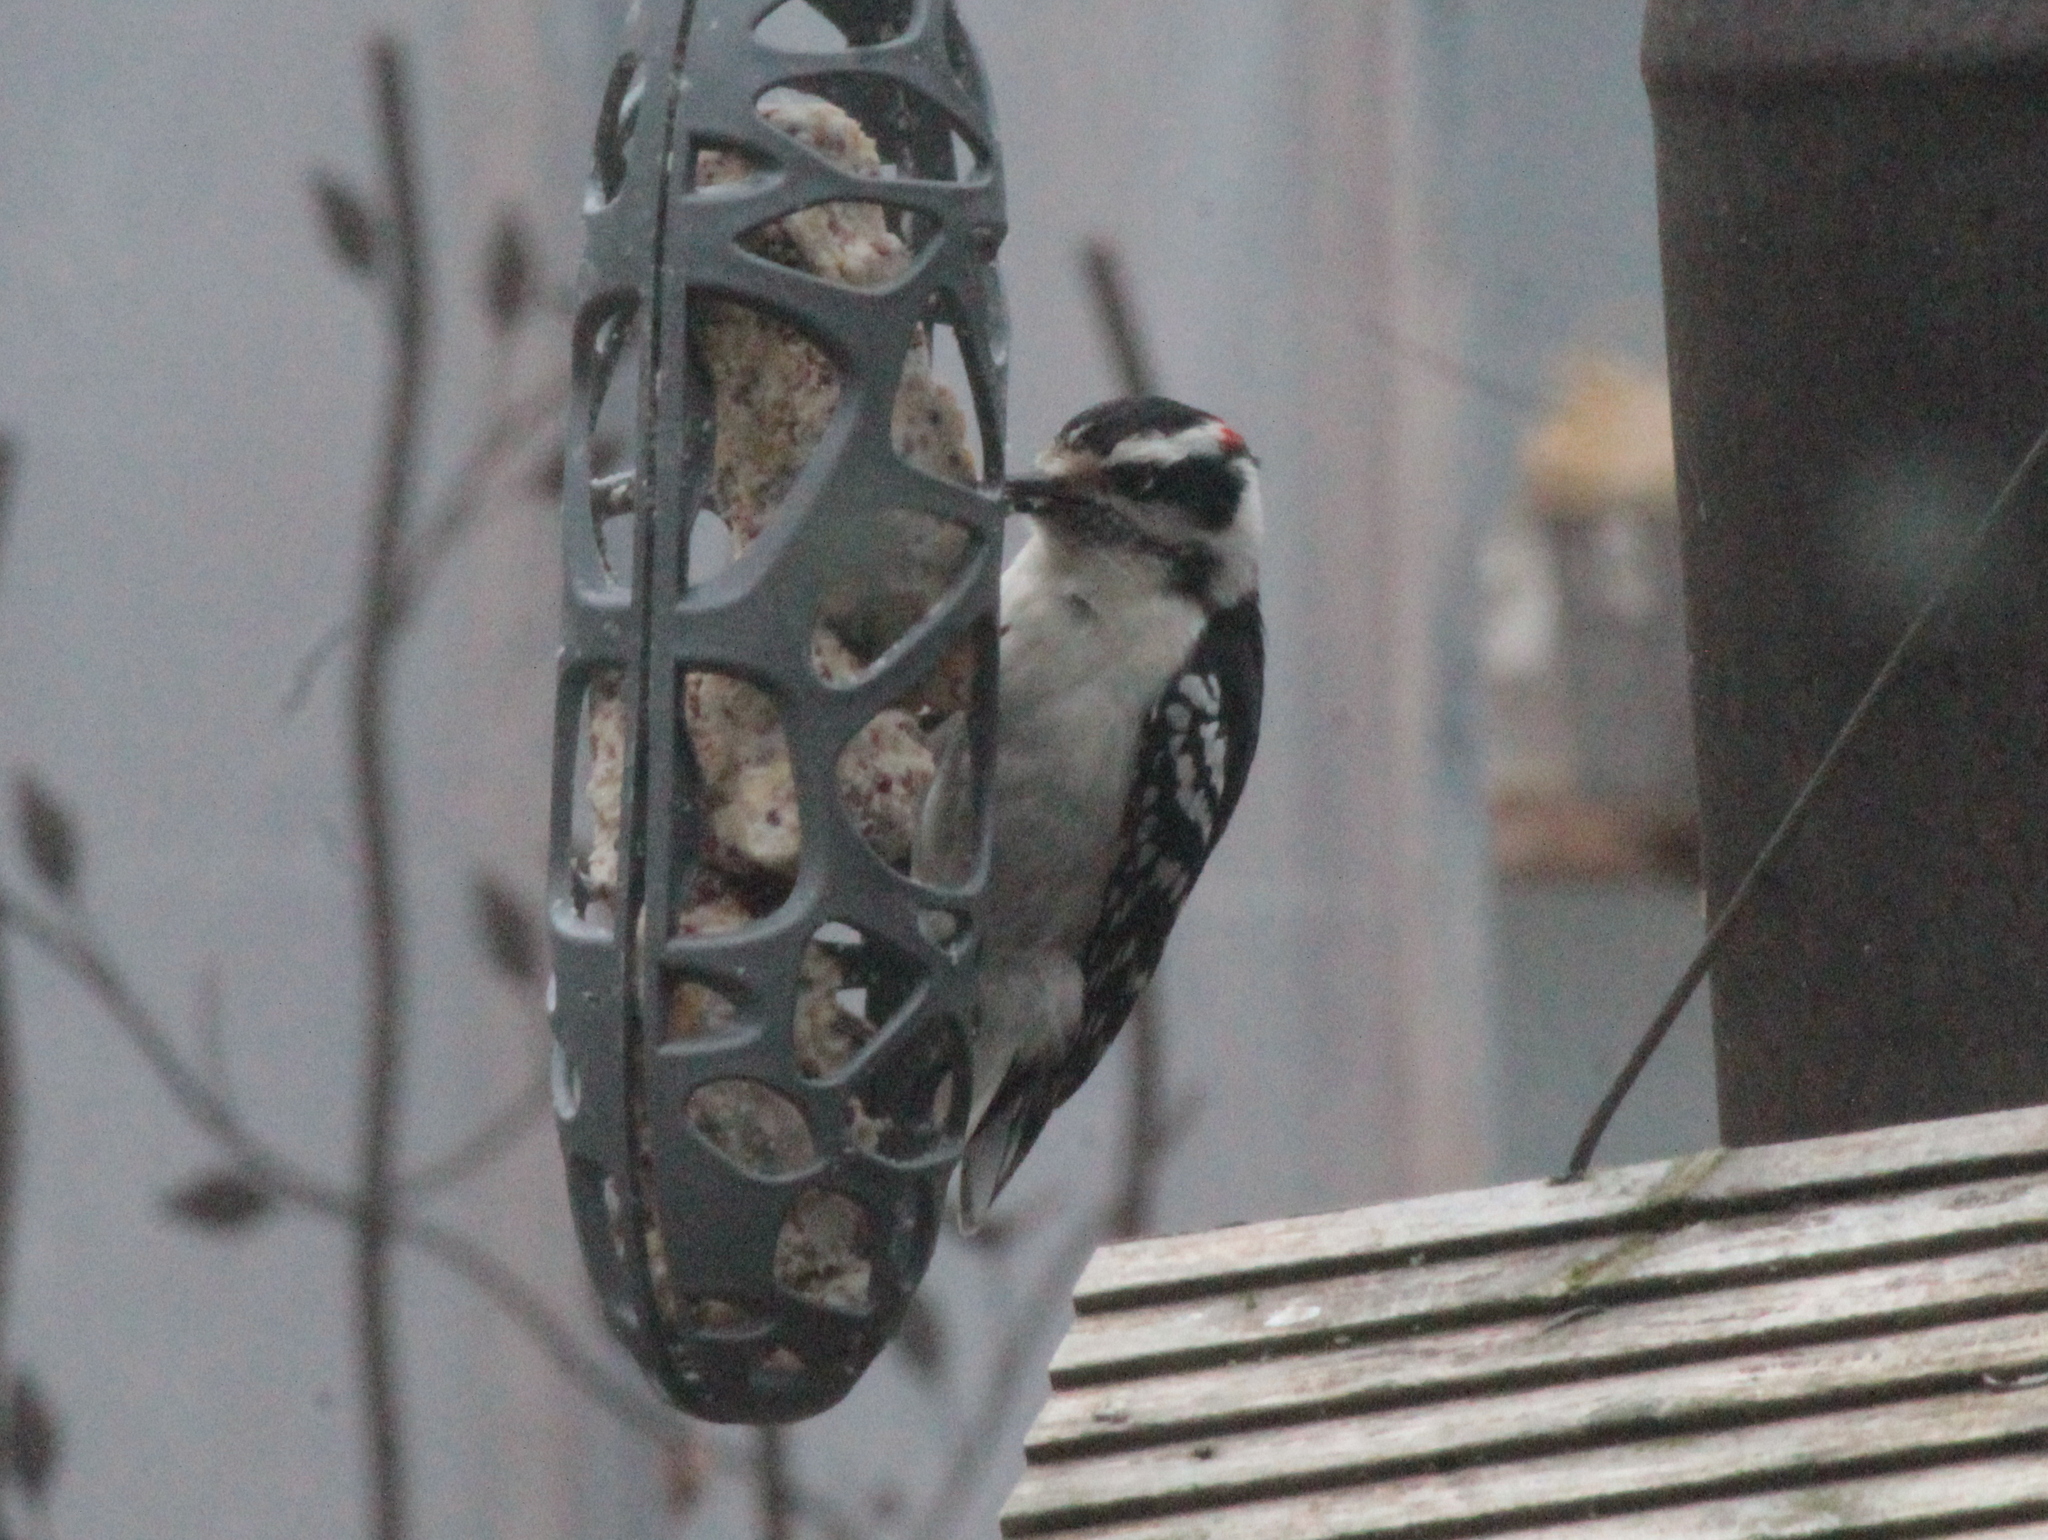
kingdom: Animalia
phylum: Chordata
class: Aves
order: Piciformes
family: Picidae
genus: Dryobates
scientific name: Dryobates pubescens
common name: Downy woodpecker
